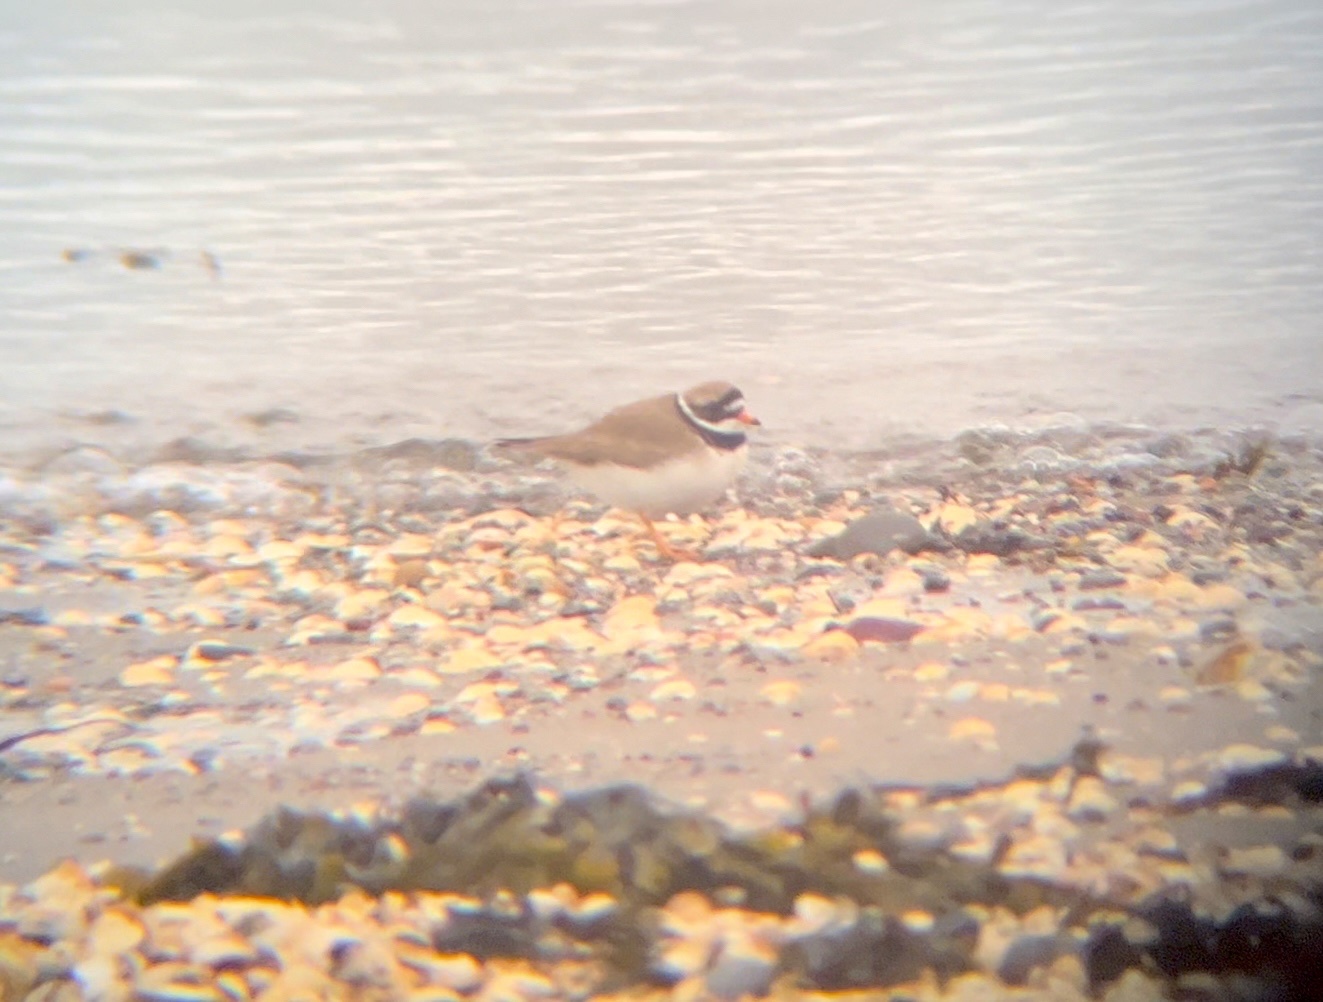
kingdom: Animalia
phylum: Chordata
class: Aves
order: Charadriiformes
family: Charadriidae
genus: Charadrius
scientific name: Charadrius hiaticula
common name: Common ringed plover
